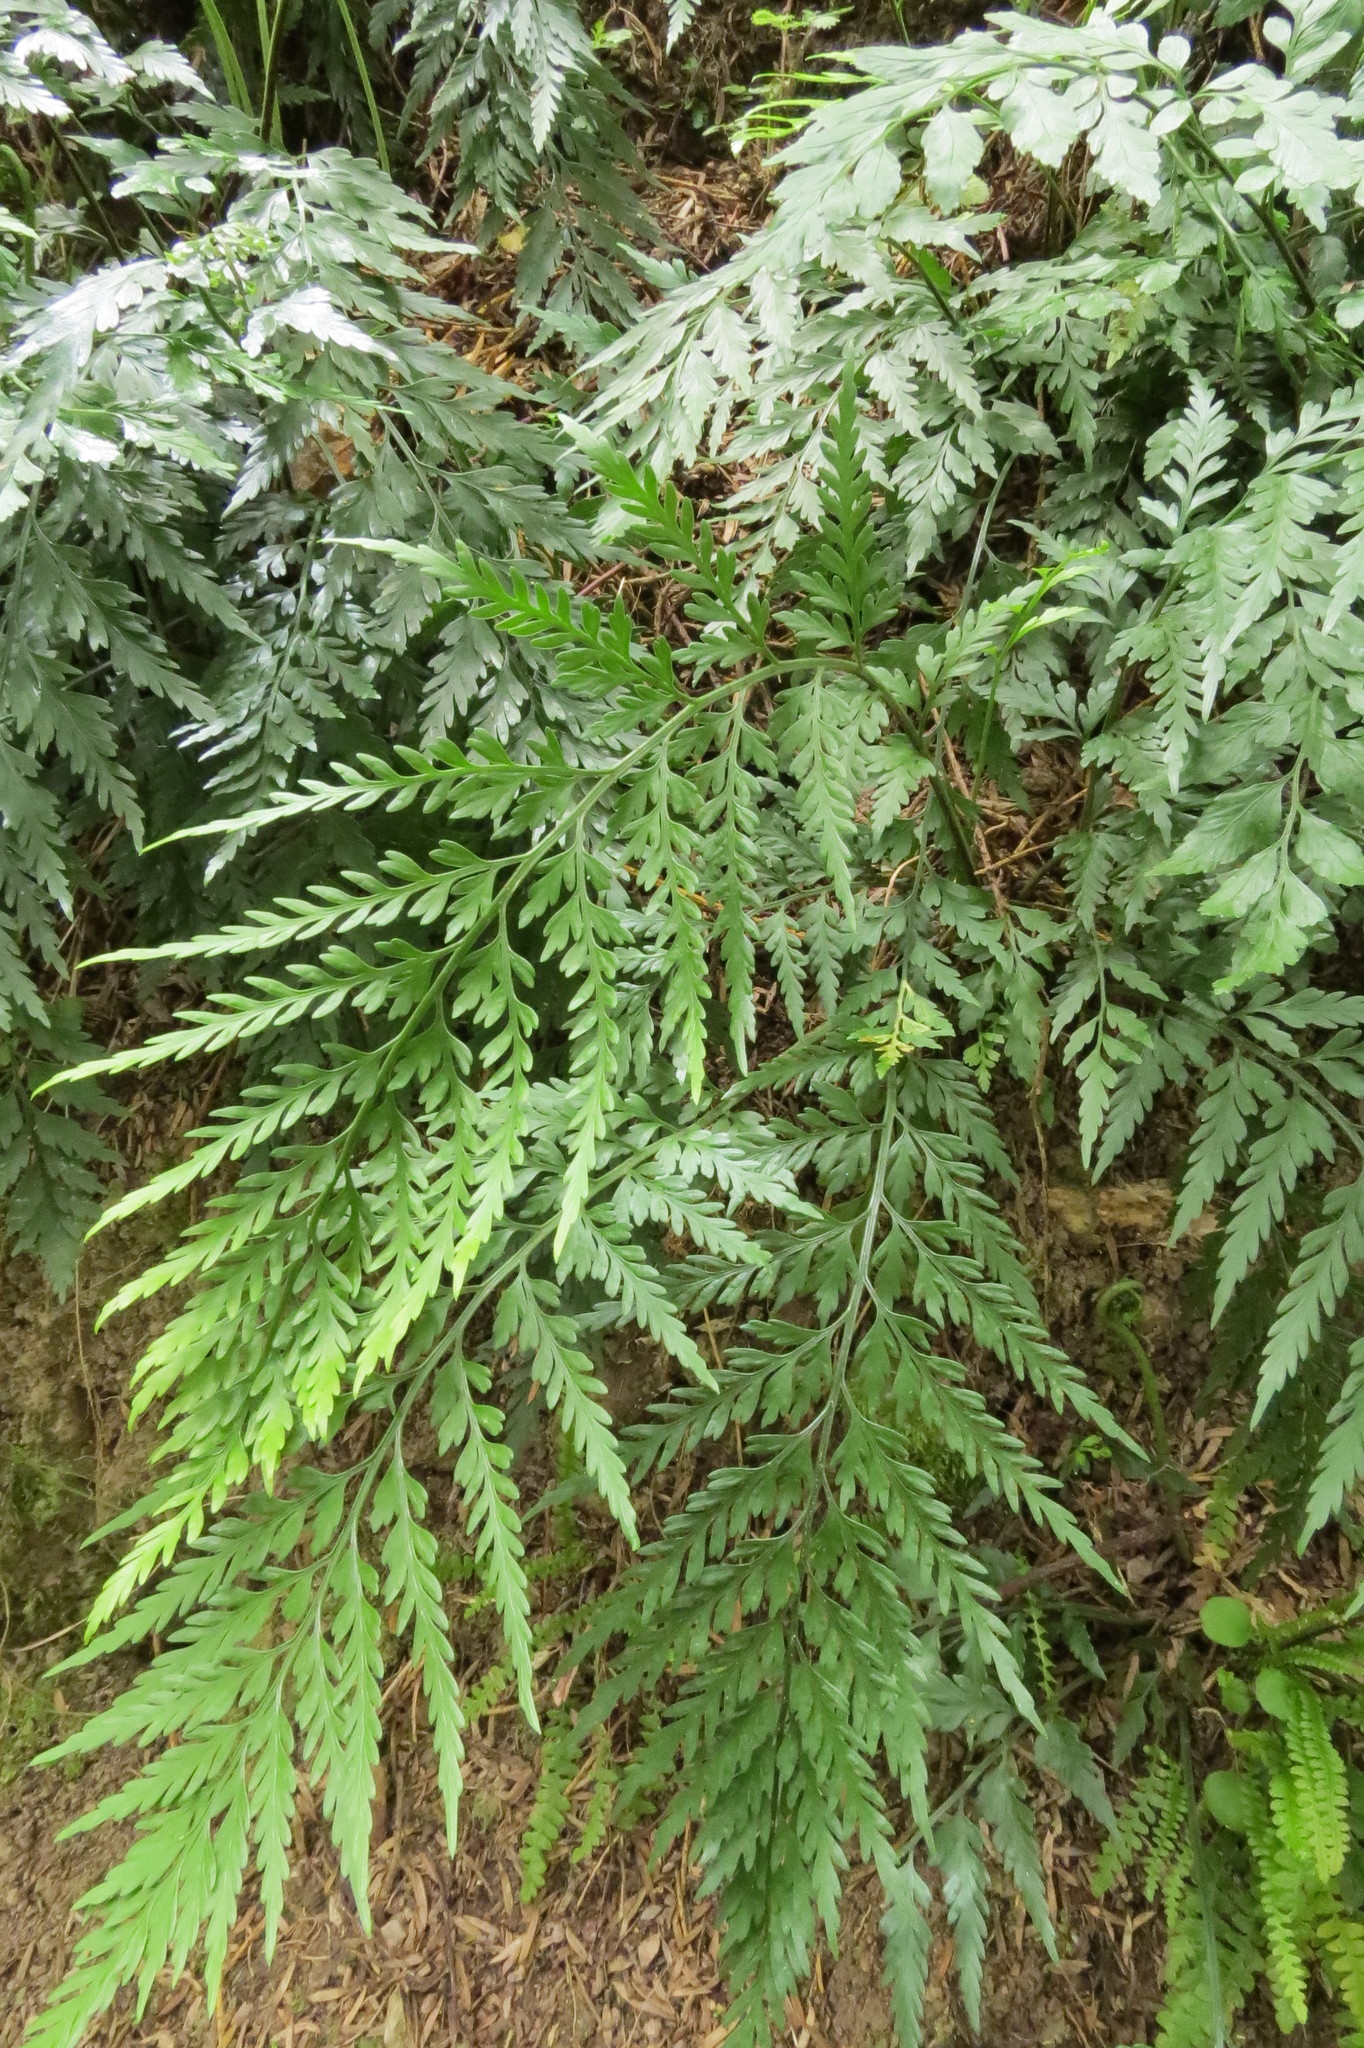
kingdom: Plantae
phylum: Tracheophyta
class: Polypodiopsida
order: Polypodiales
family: Aspleniaceae
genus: Asplenium
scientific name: Asplenium appendiculatum
